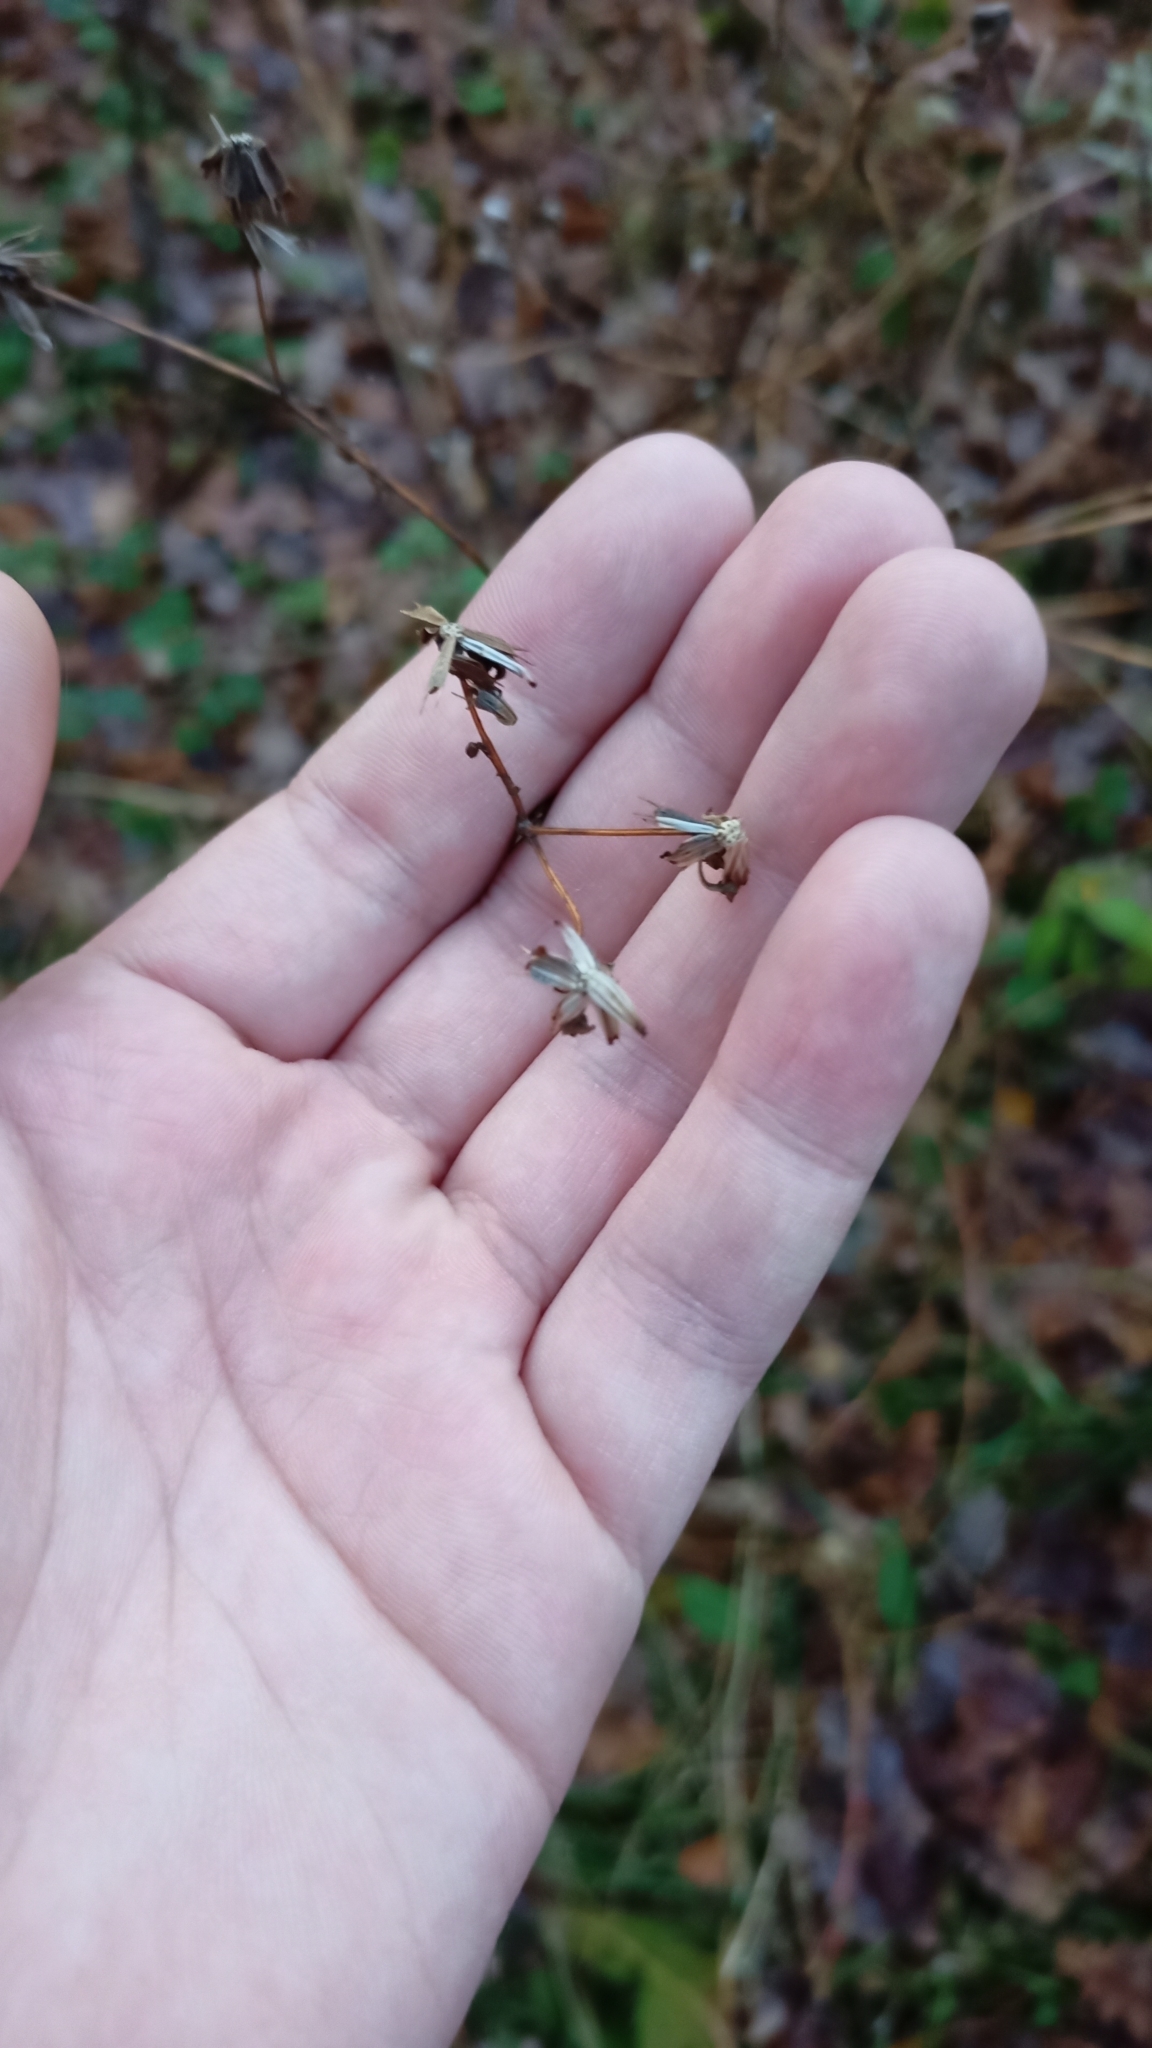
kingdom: Plantae
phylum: Tracheophyta
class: Magnoliopsida
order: Asterales
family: Asteraceae
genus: Bidens
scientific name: Bidens frondosa
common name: Beggarticks
